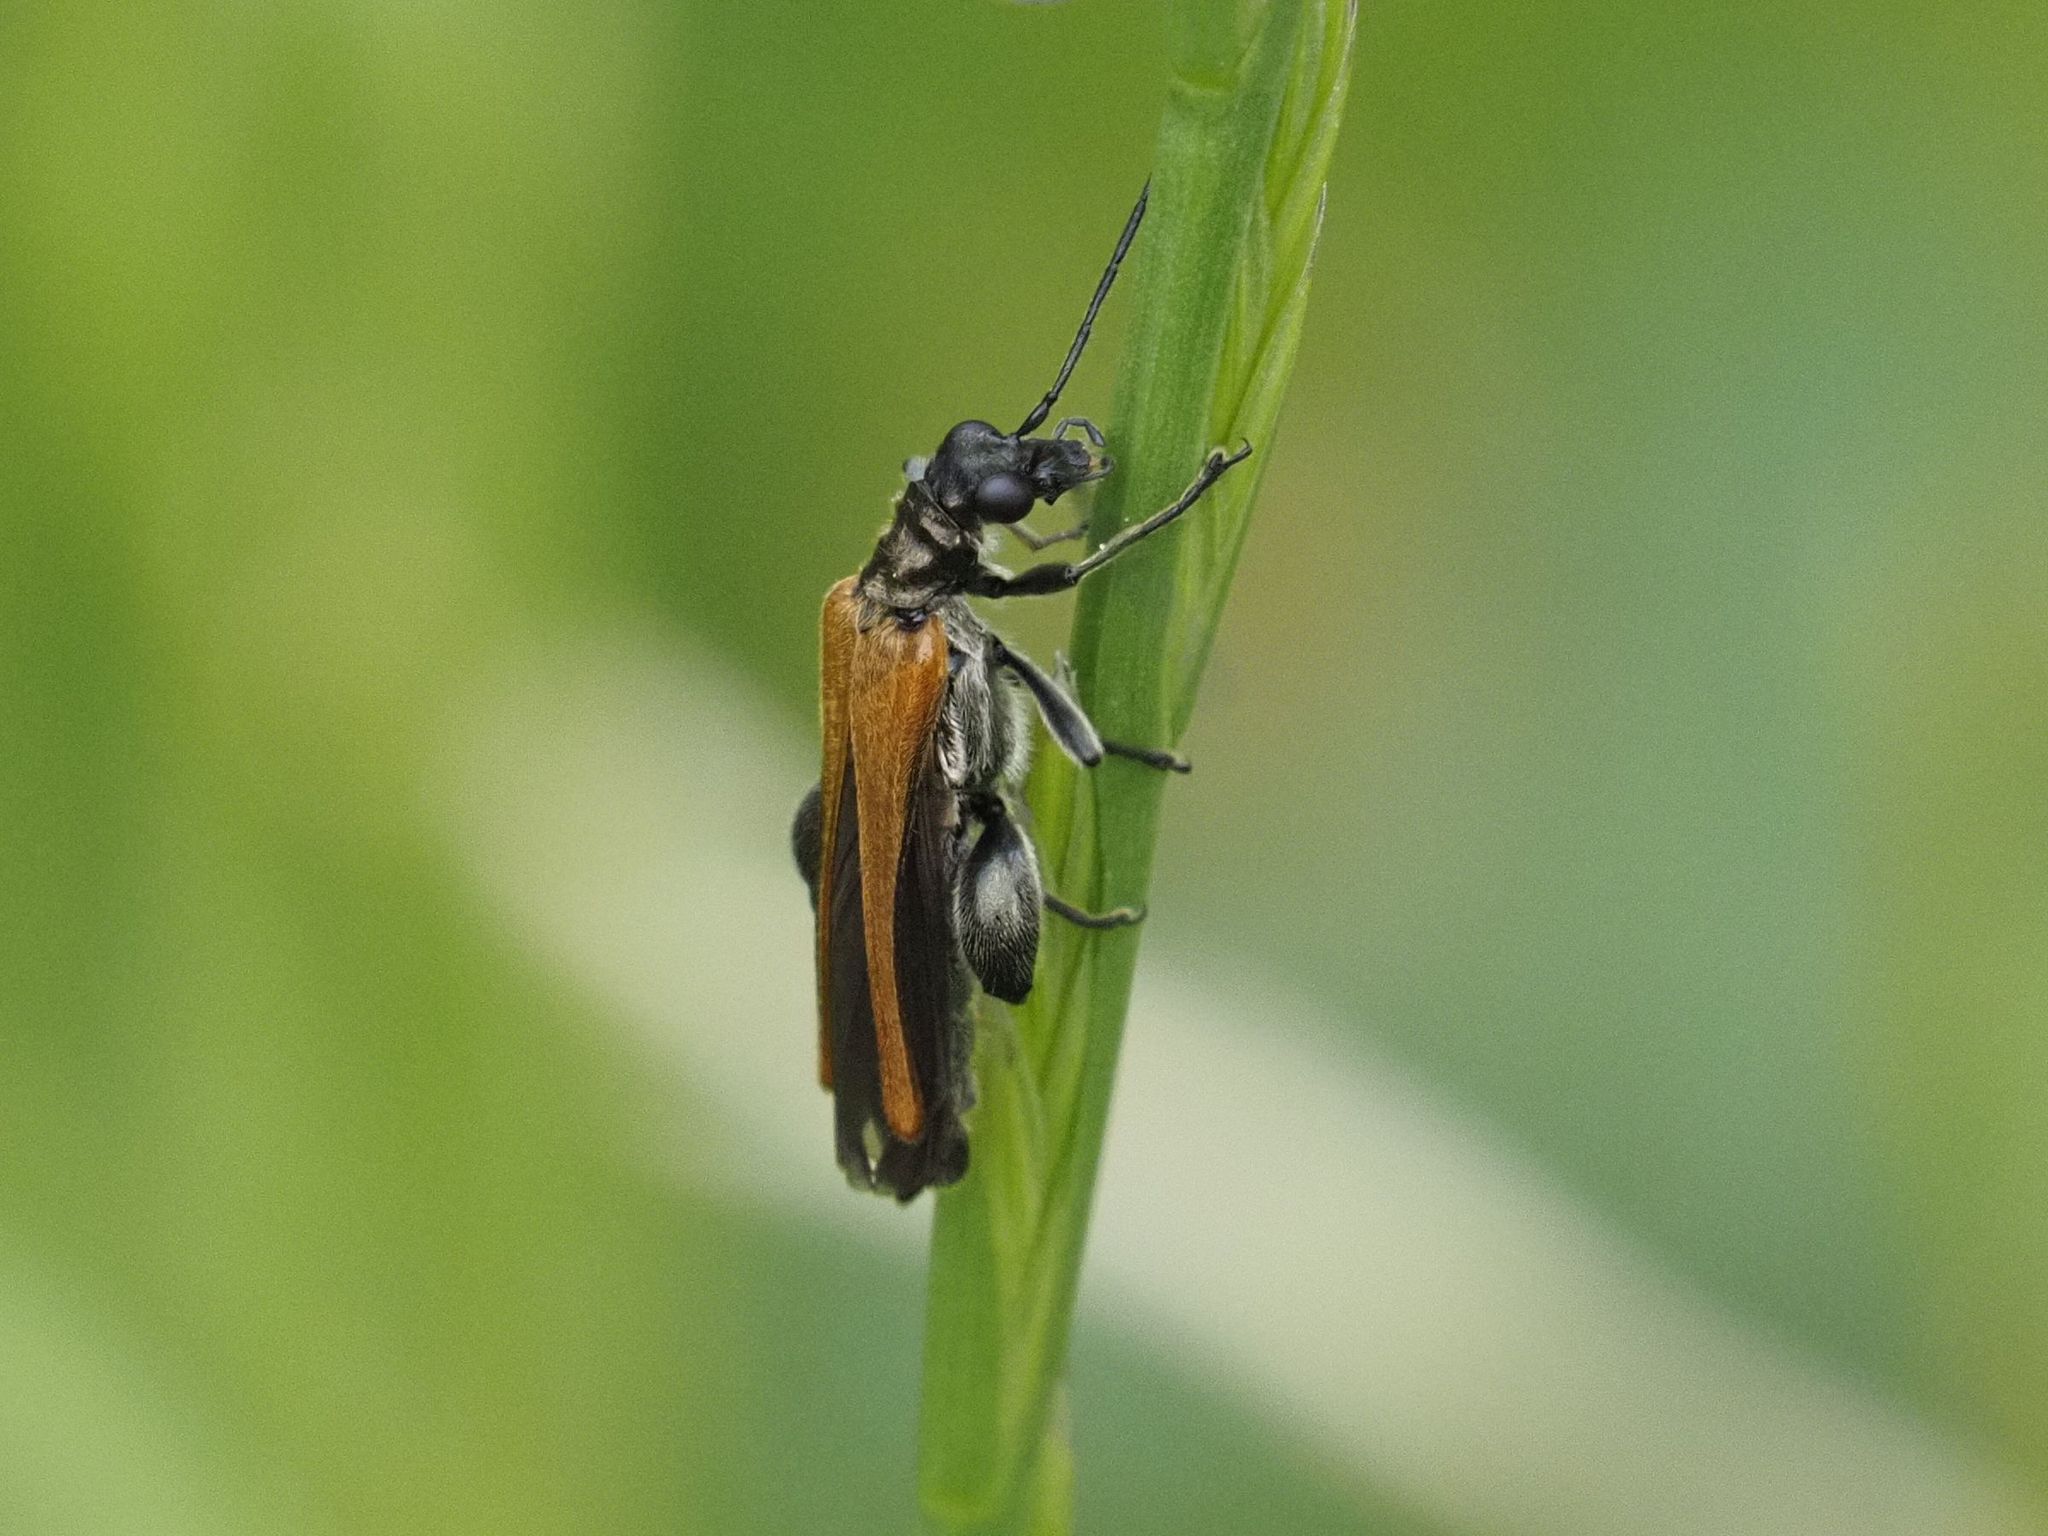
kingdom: Animalia
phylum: Arthropoda
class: Insecta
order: Coleoptera
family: Oedemeridae
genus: Oedemera
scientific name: Oedemera femorata
